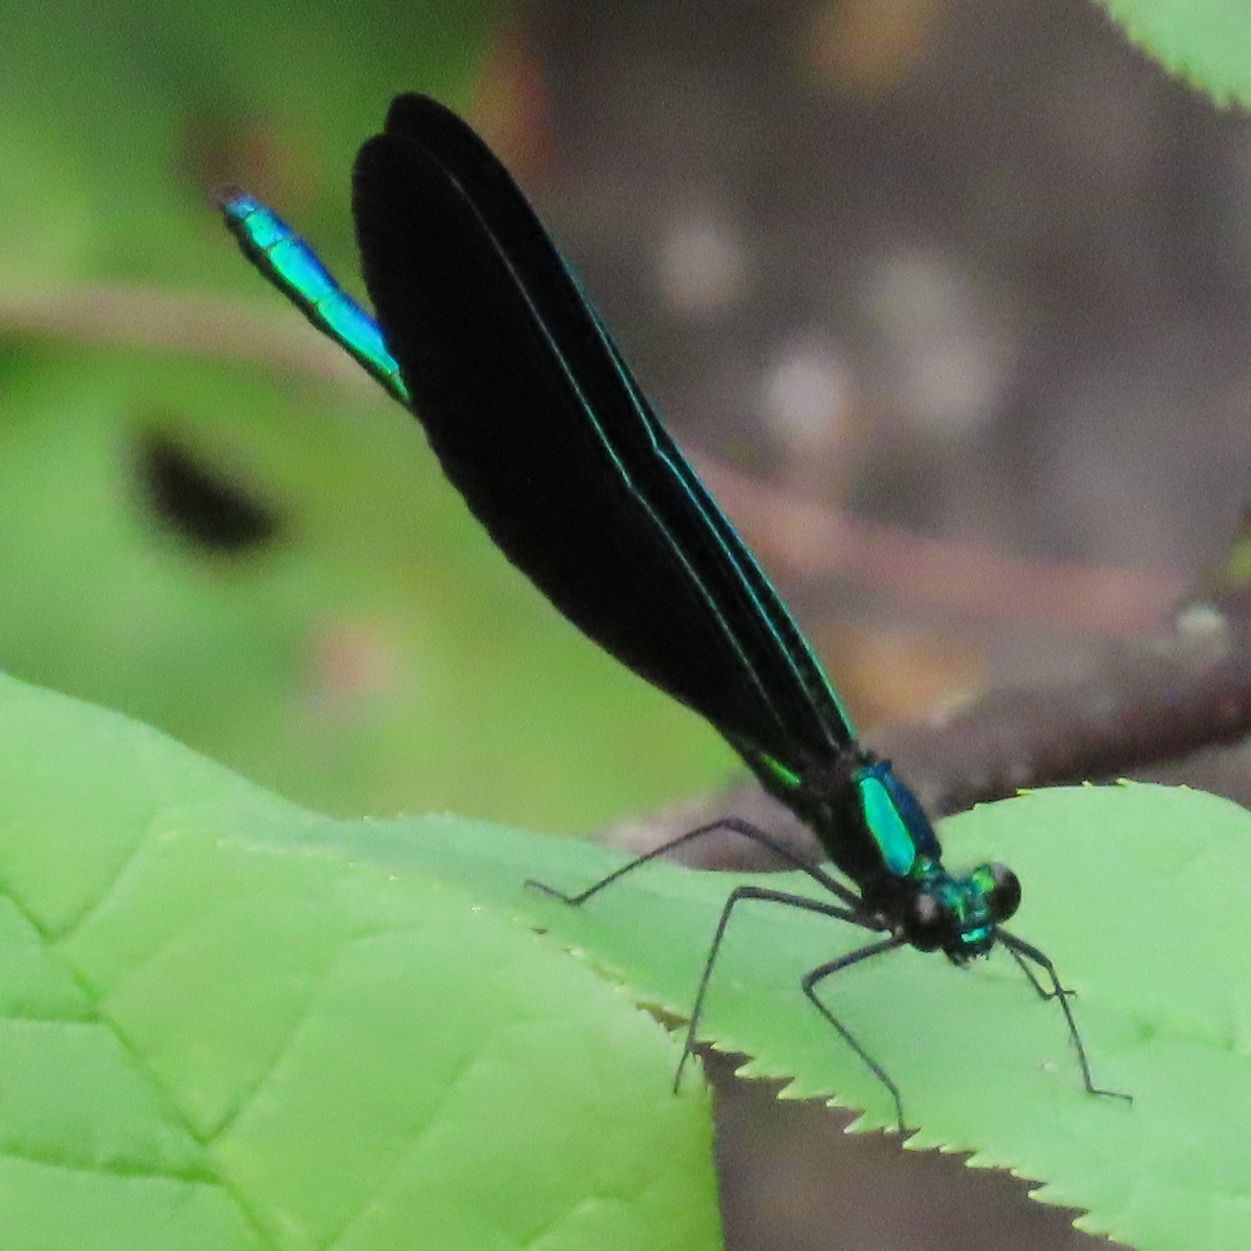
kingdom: Animalia
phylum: Arthropoda
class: Insecta
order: Odonata
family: Calopterygidae
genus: Calopteryx
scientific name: Calopteryx maculata
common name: Ebony jewelwing
